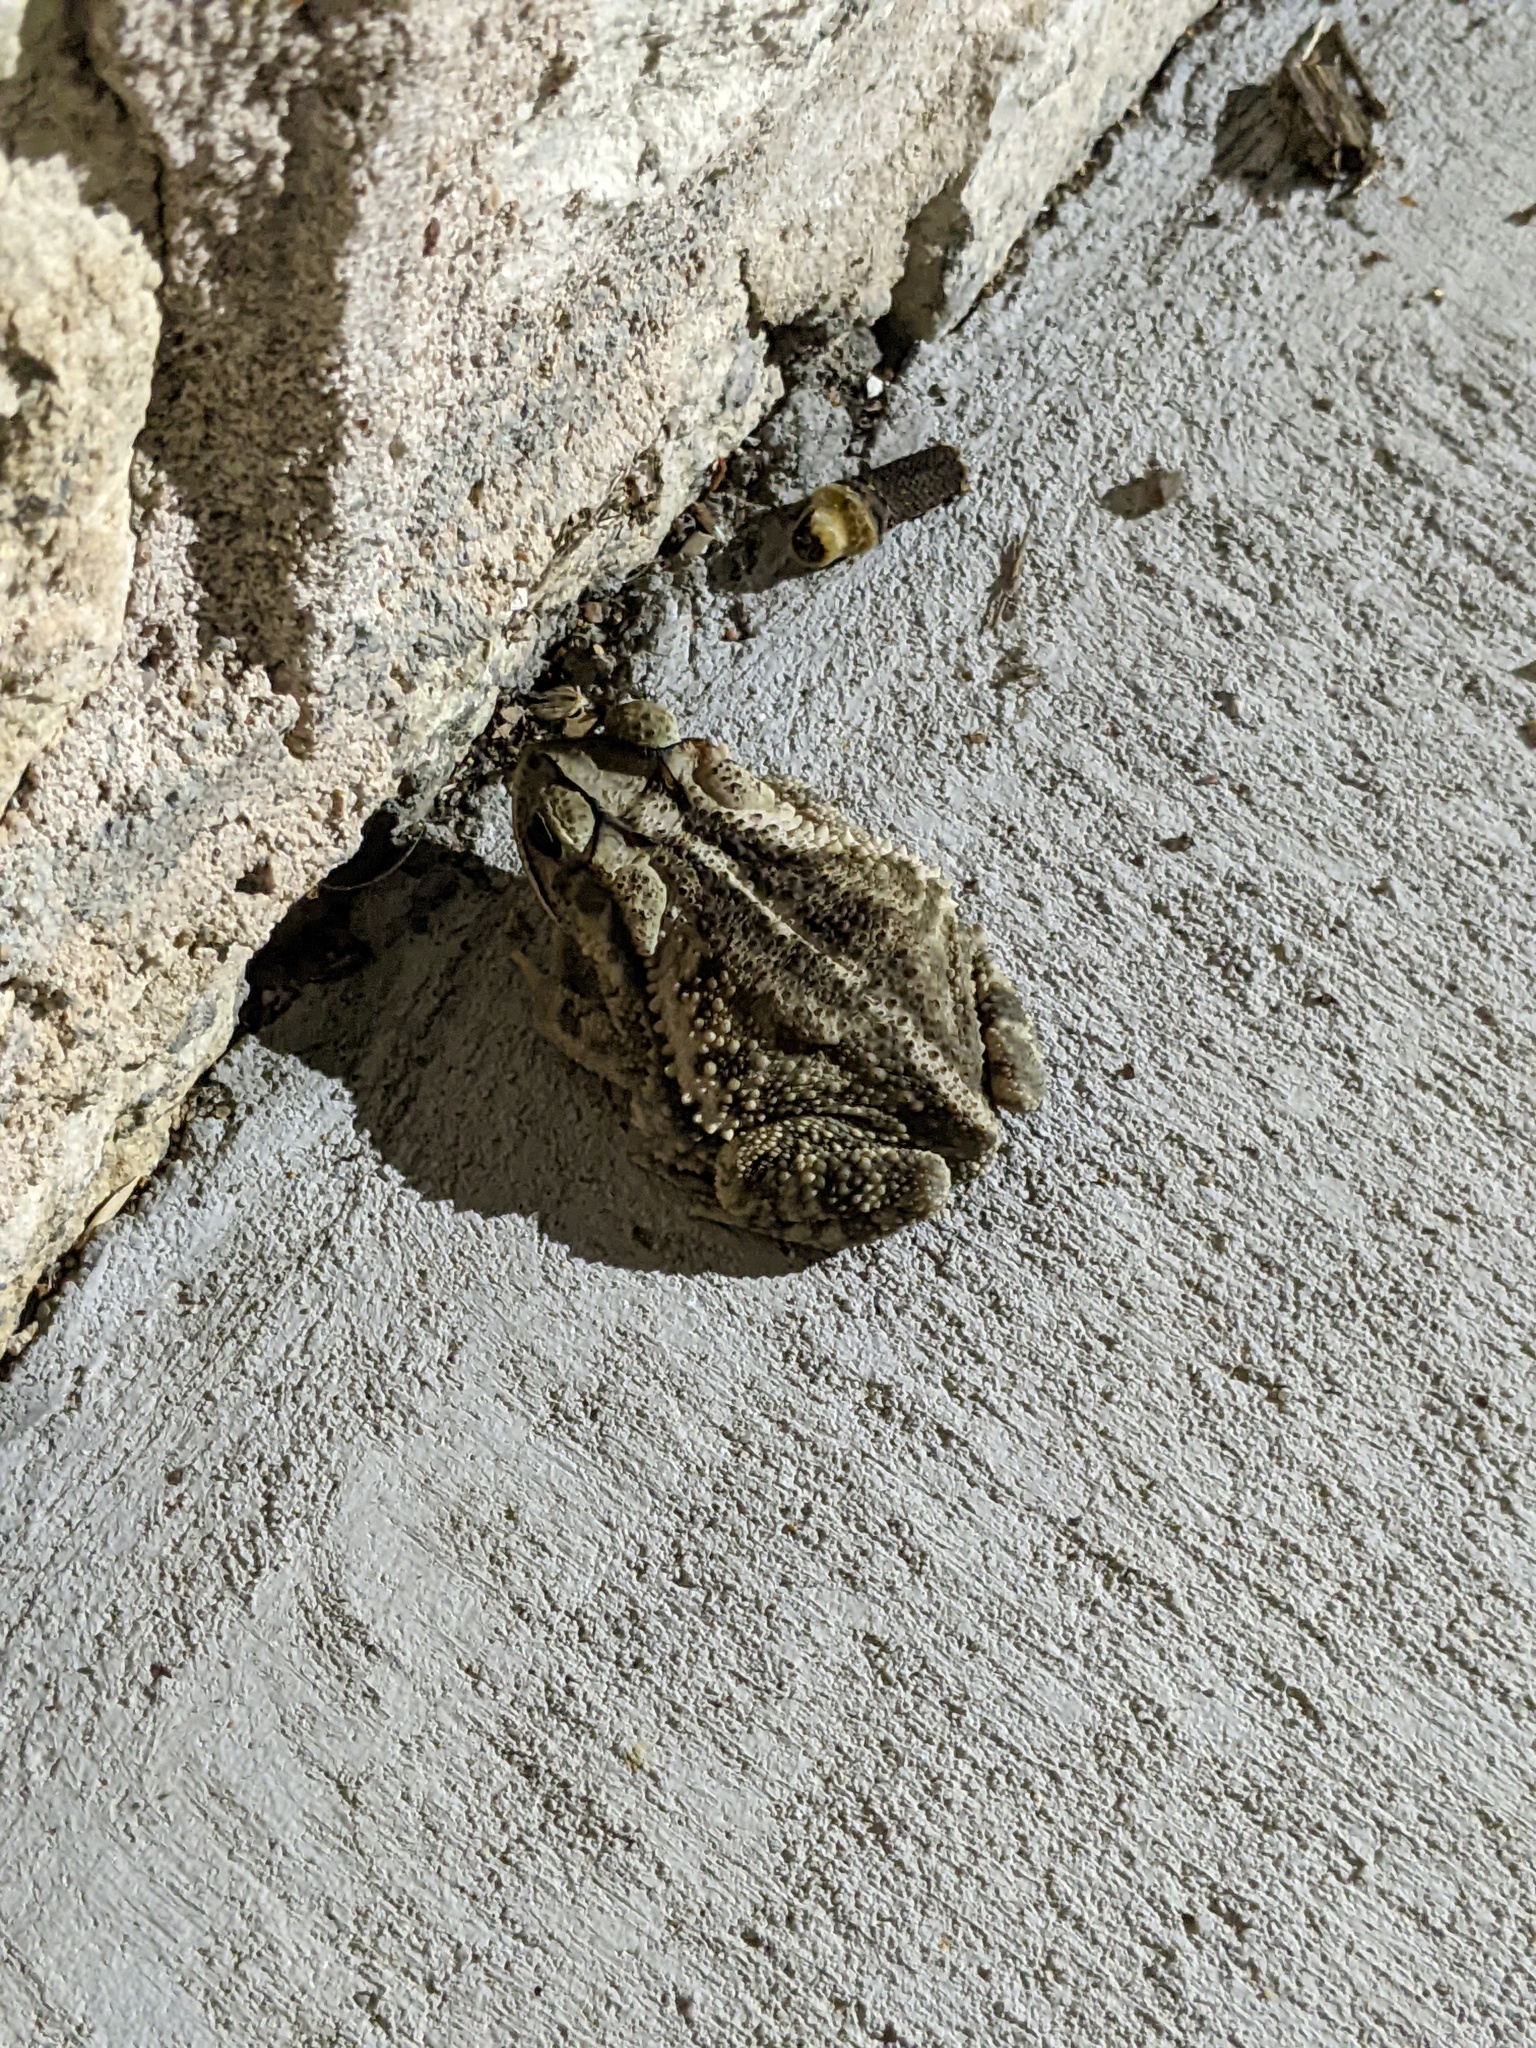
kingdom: Animalia
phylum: Chordata
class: Amphibia
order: Anura
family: Bufonidae
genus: Incilius
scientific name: Incilius nebulifer
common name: Gulf coast toad
